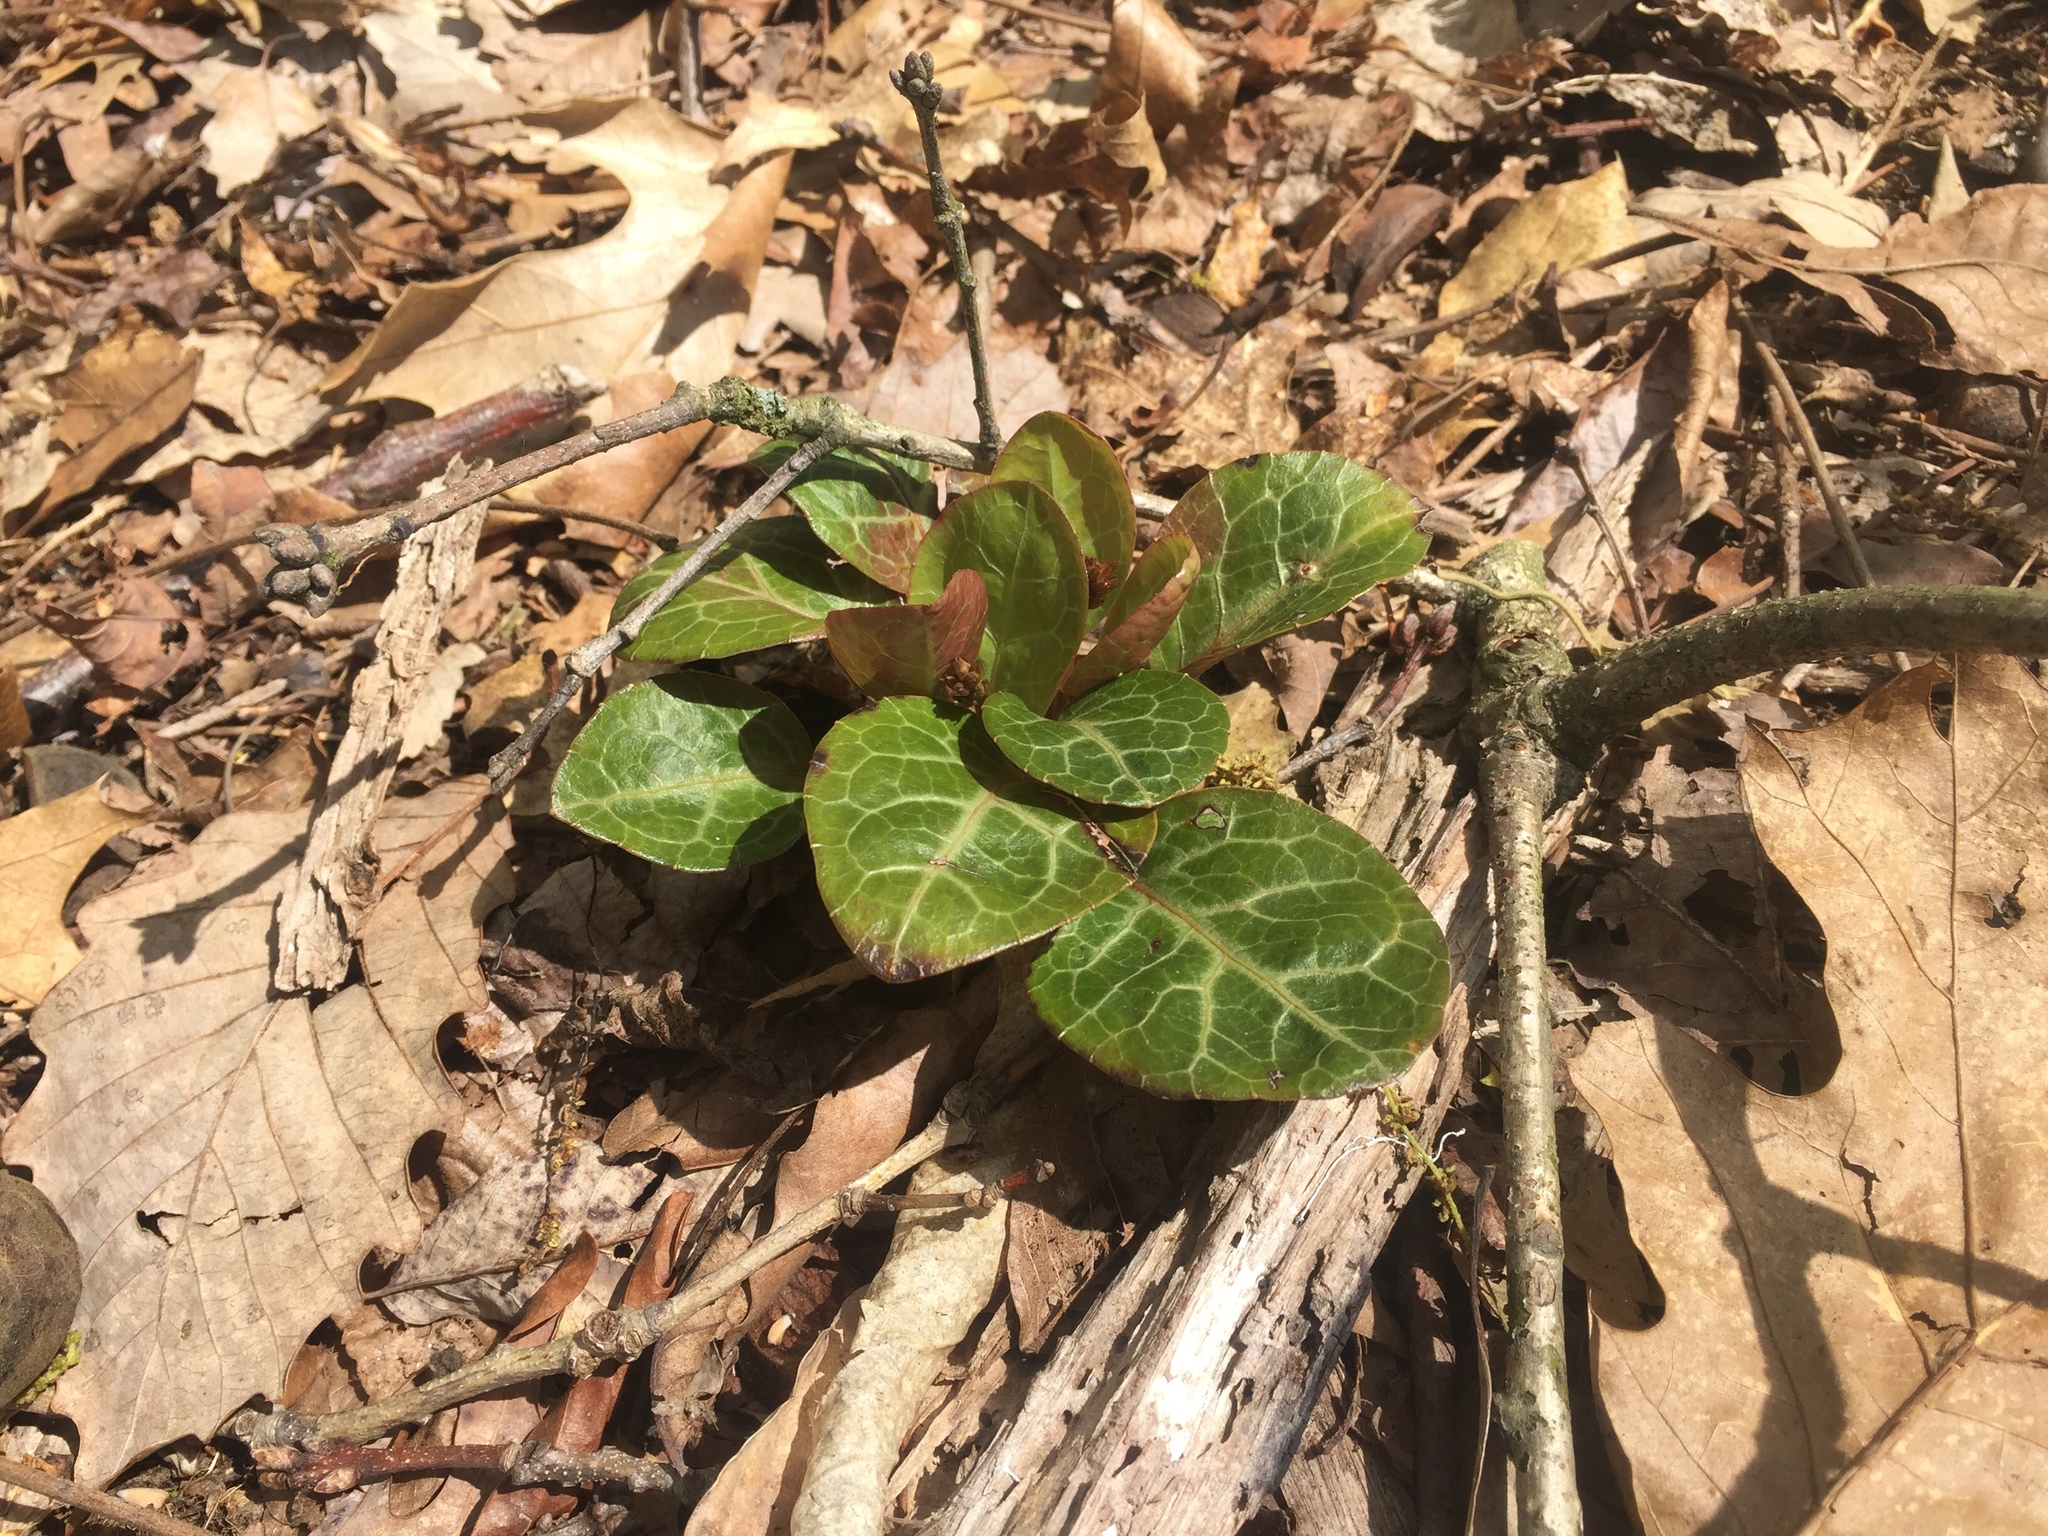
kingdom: Plantae
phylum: Tracheophyta
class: Magnoliopsida
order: Ericales
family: Ericaceae
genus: Pyrola
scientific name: Pyrola americana
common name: American wintergreen
